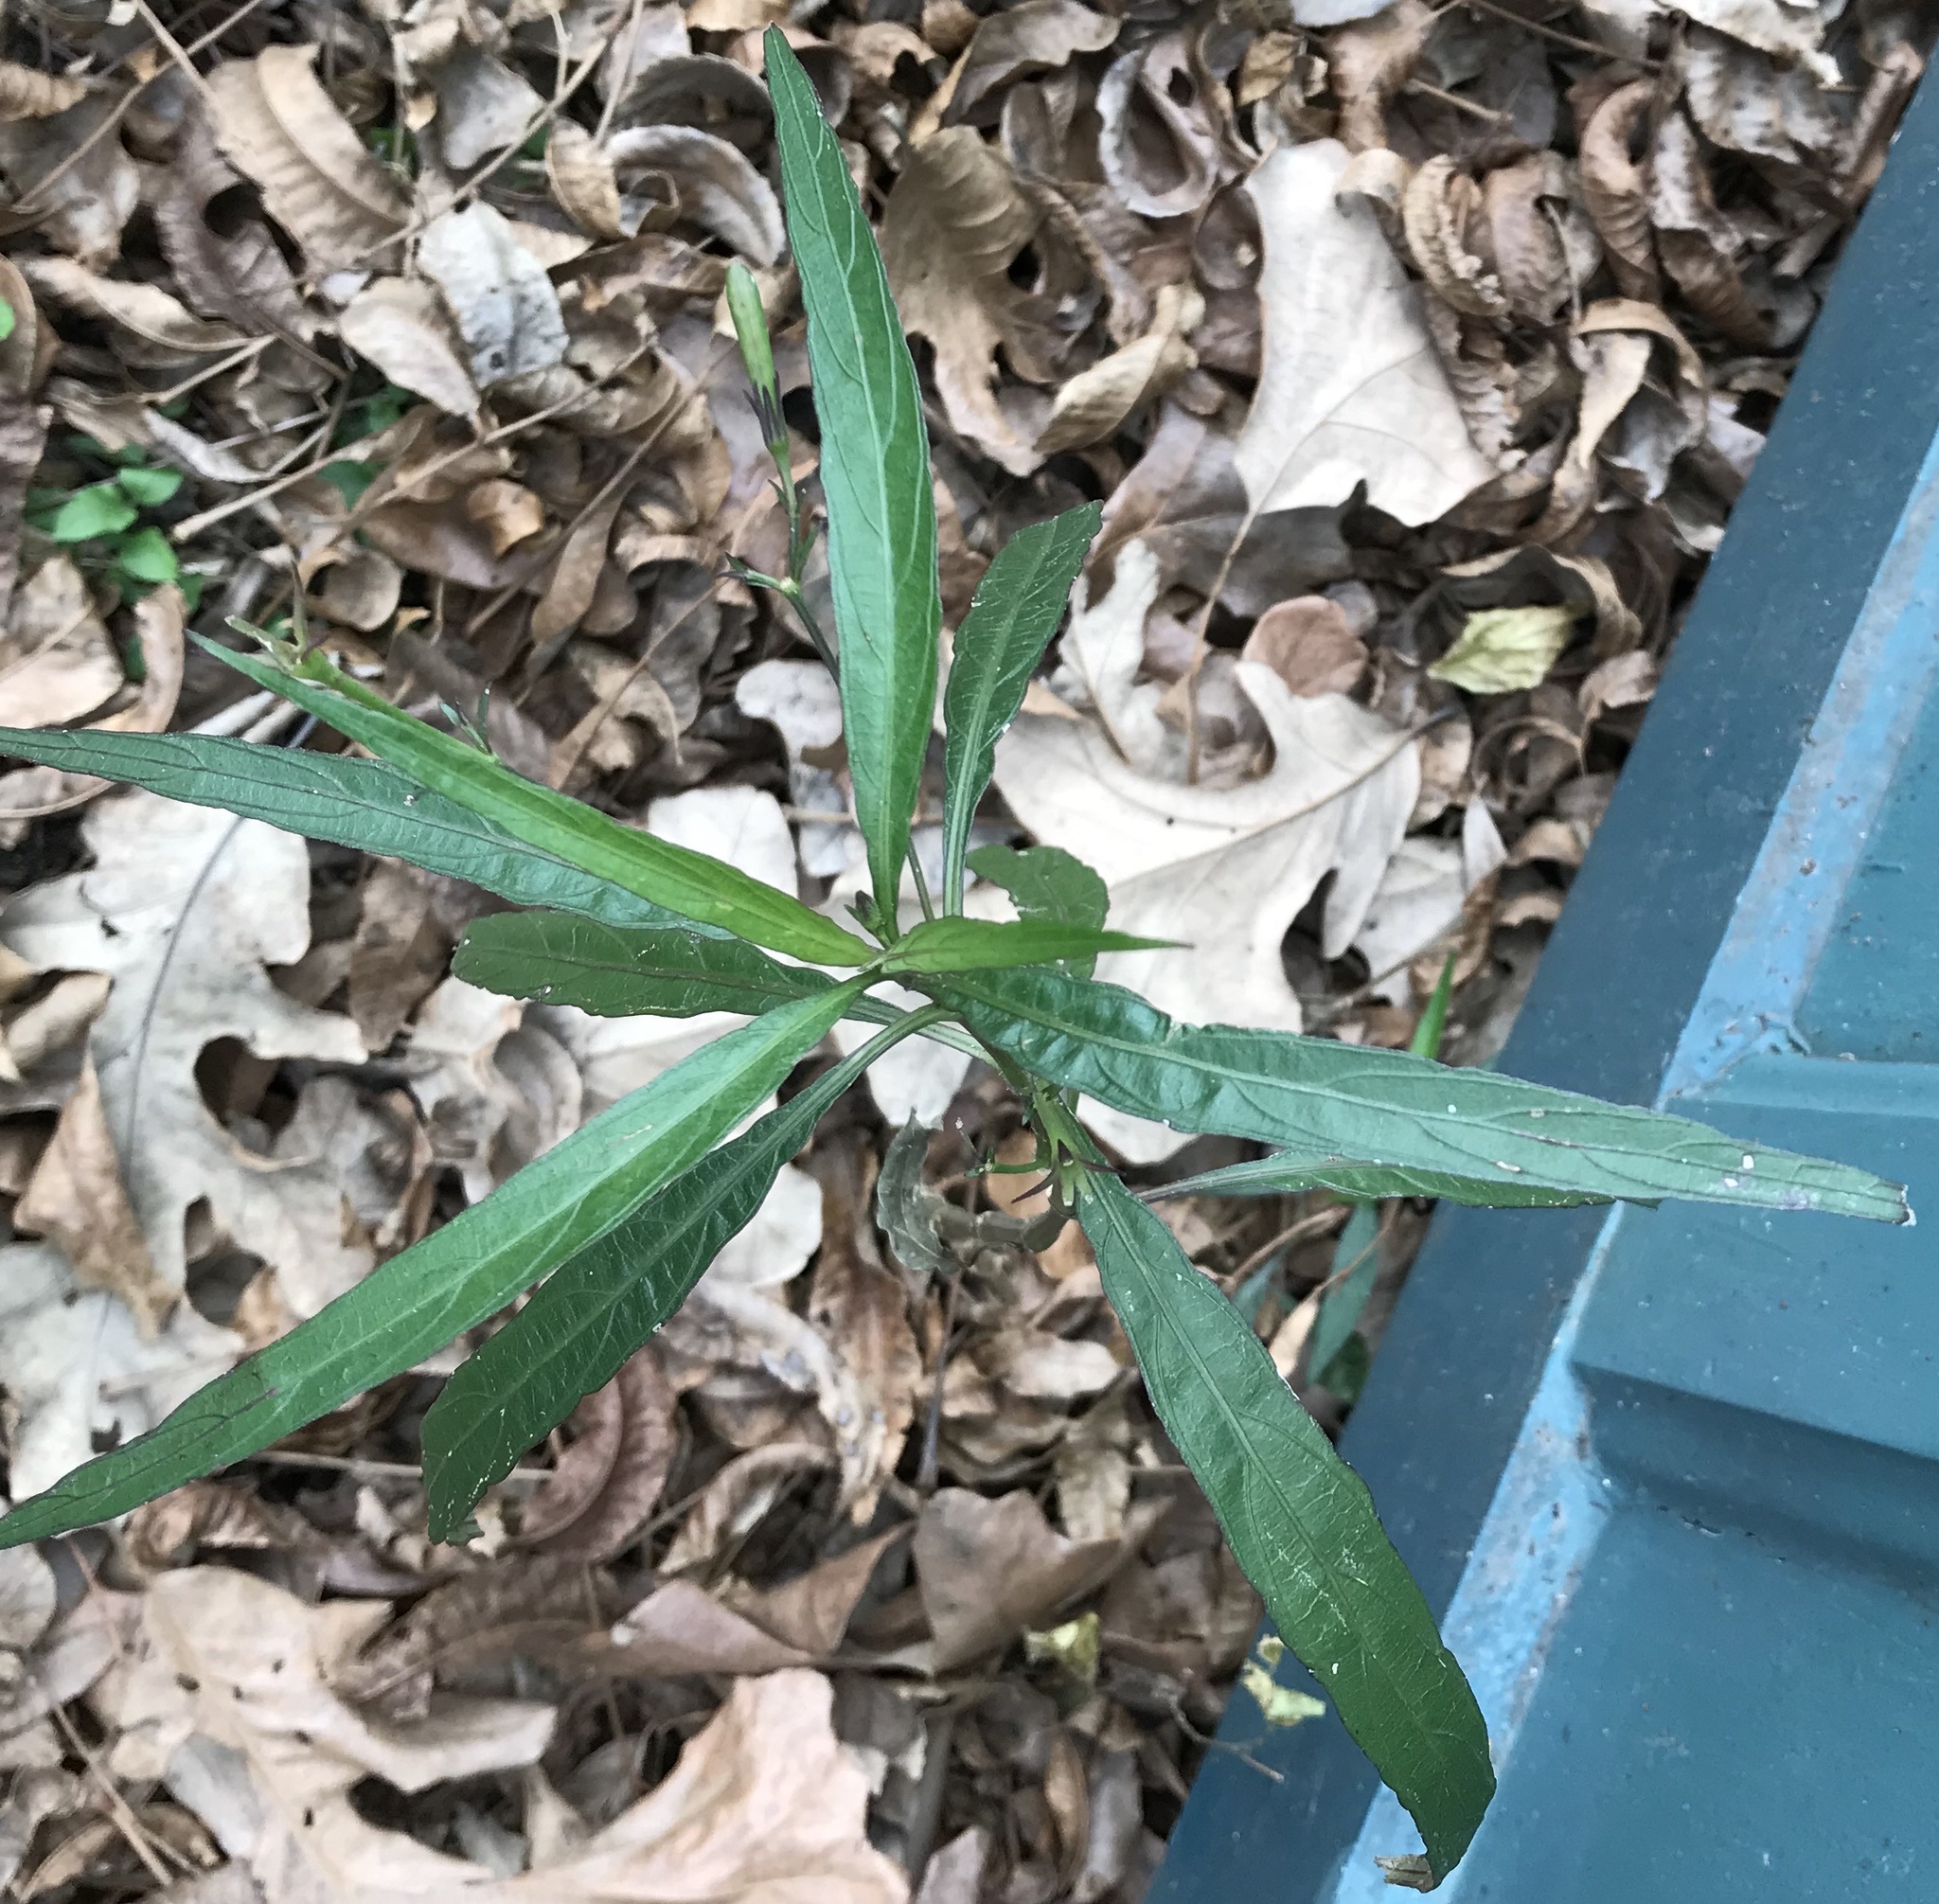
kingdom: Plantae
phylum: Tracheophyta
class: Magnoliopsida
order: Lamiales
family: Acanthaceae
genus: Ruellia
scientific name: Ruellia simplex
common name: Softseed wild petunia
